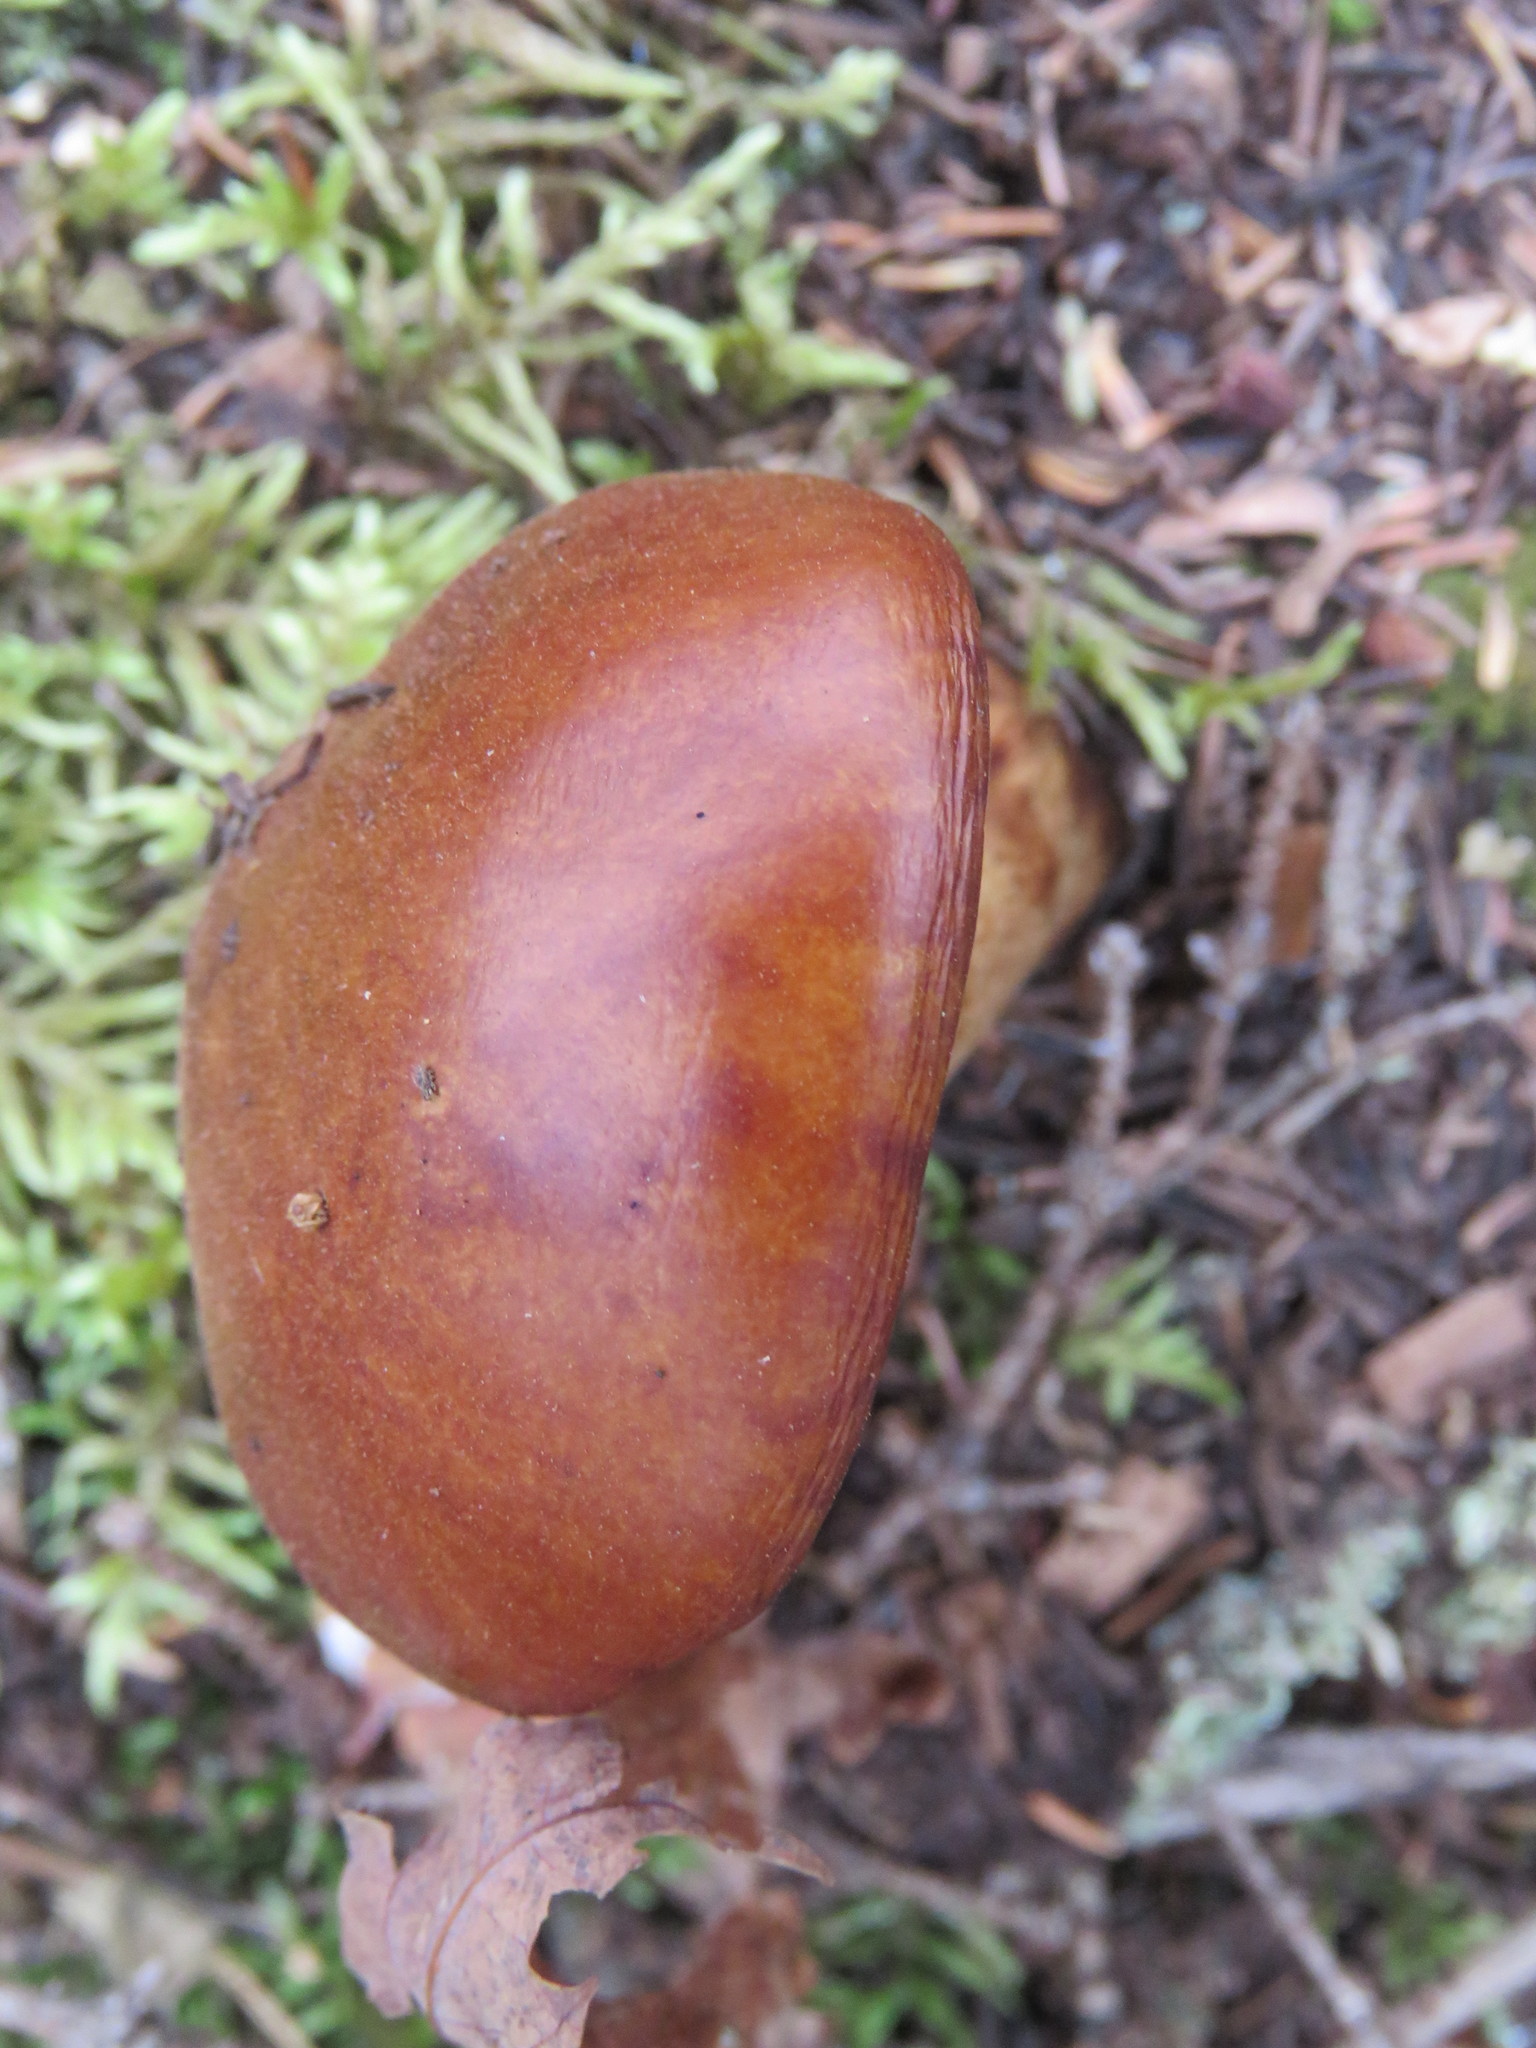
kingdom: Fungi
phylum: Basidiomycota
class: Agaricomycetes
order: Boletales
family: Suillaceae
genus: Boletinus
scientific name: Boletinus glandulosus
